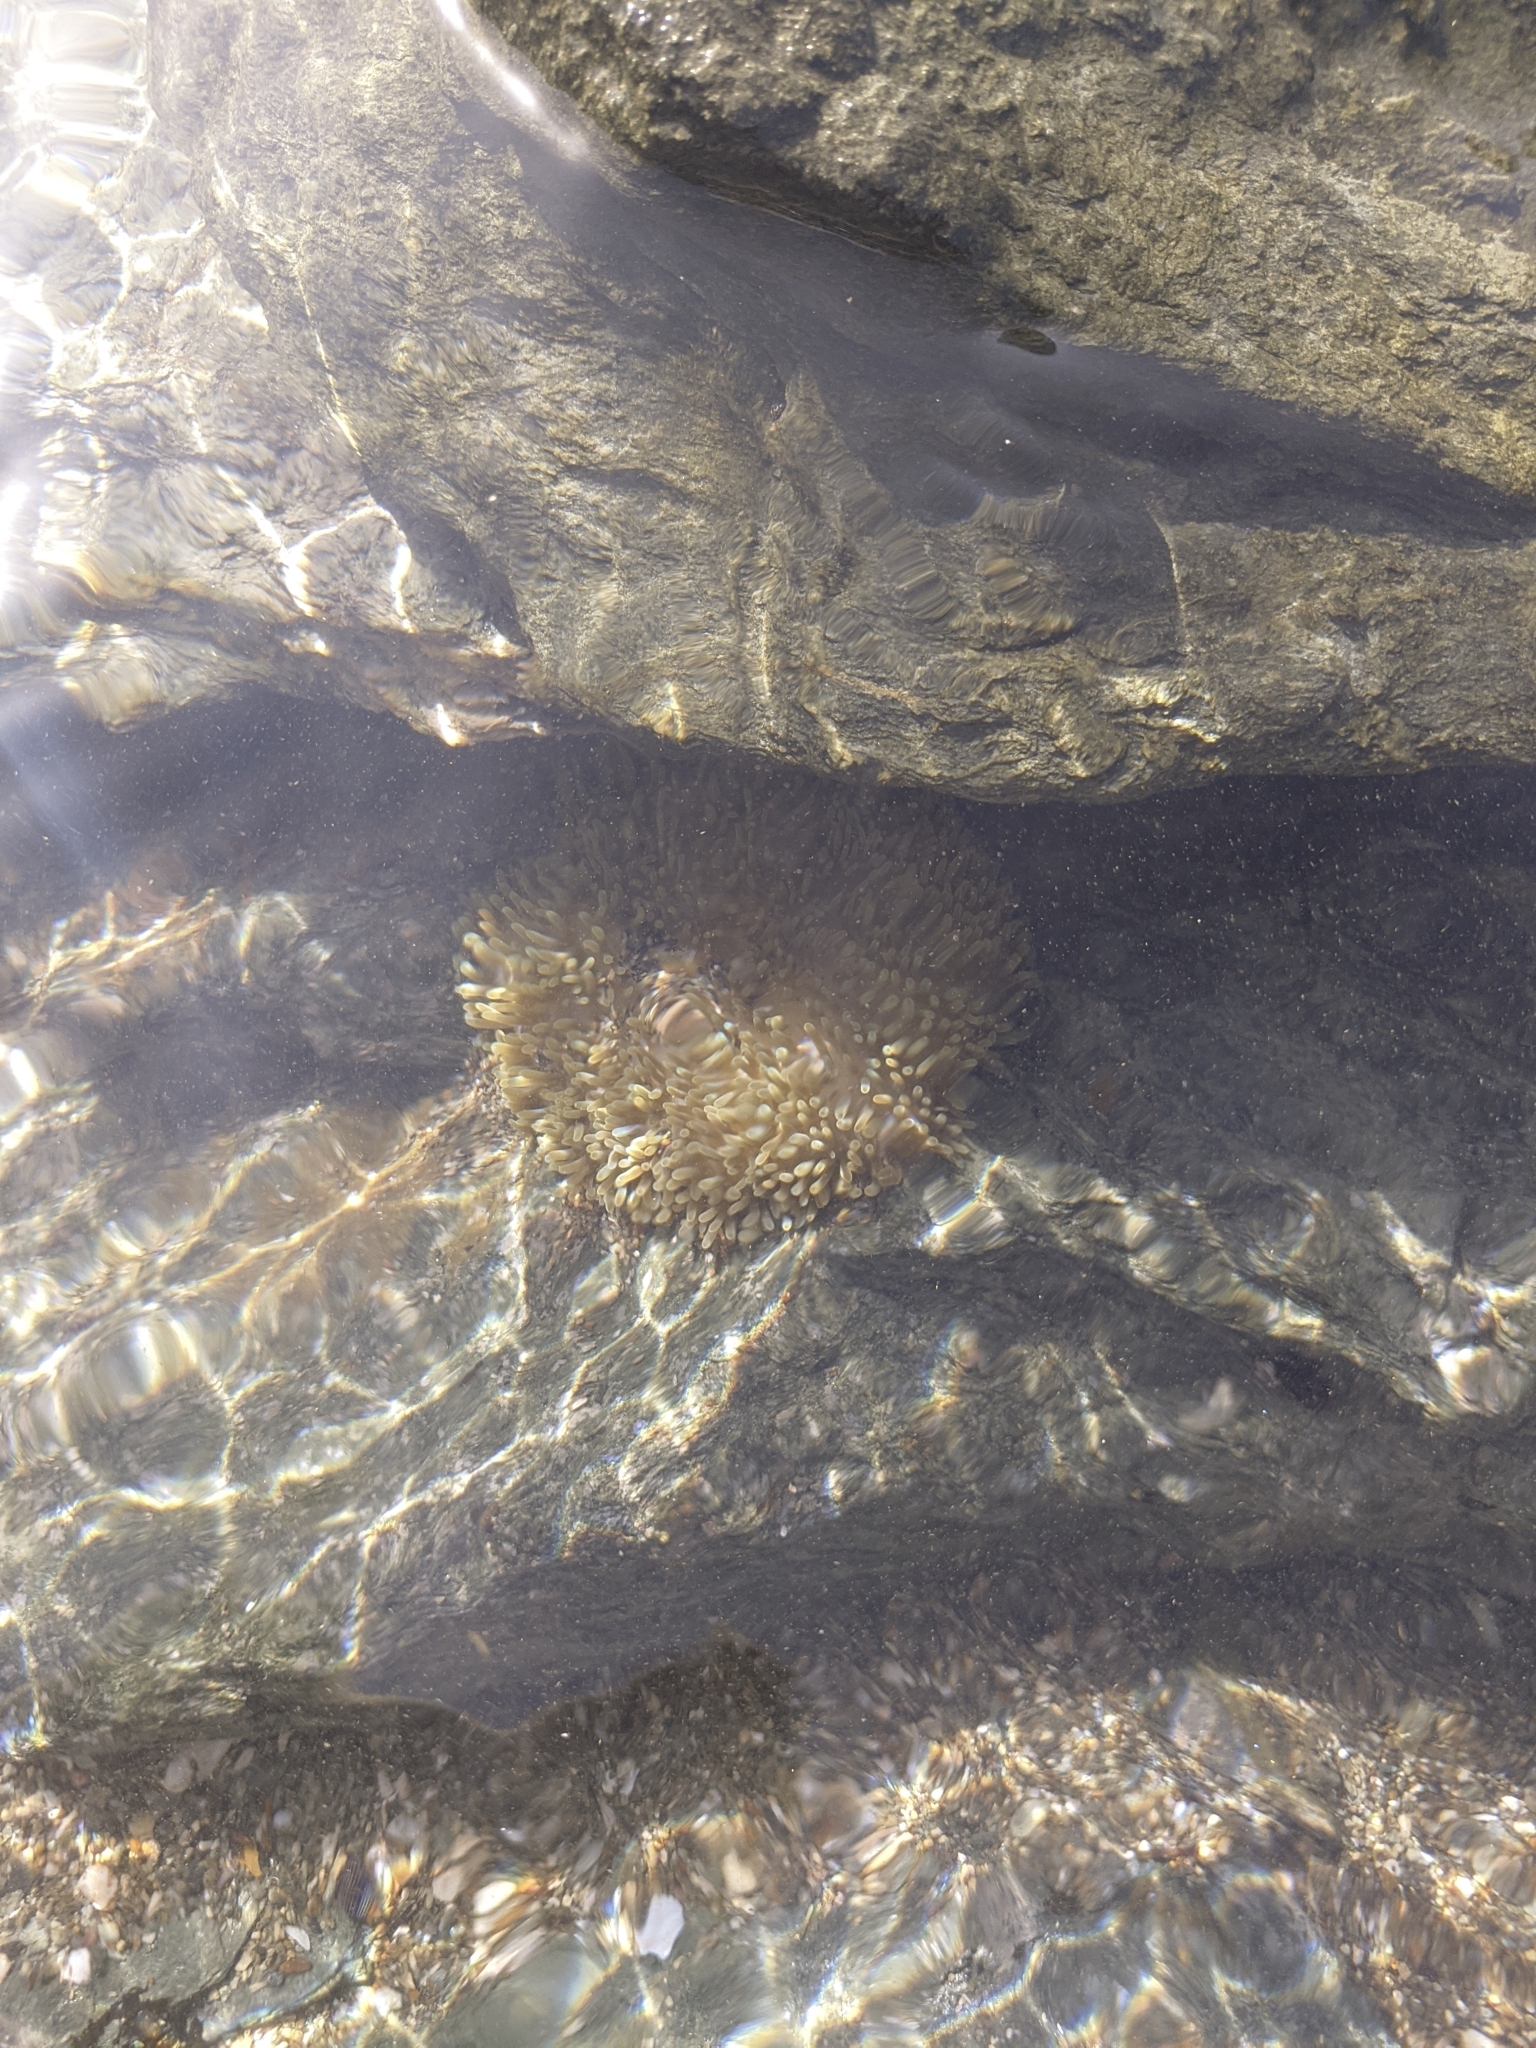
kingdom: Animalia
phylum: Cnidaria
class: Anthozoa
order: Actiniaria
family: Stichodactylidae
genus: Stichodactyla
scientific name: Stichodactyla helianthus
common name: Sun anemone
